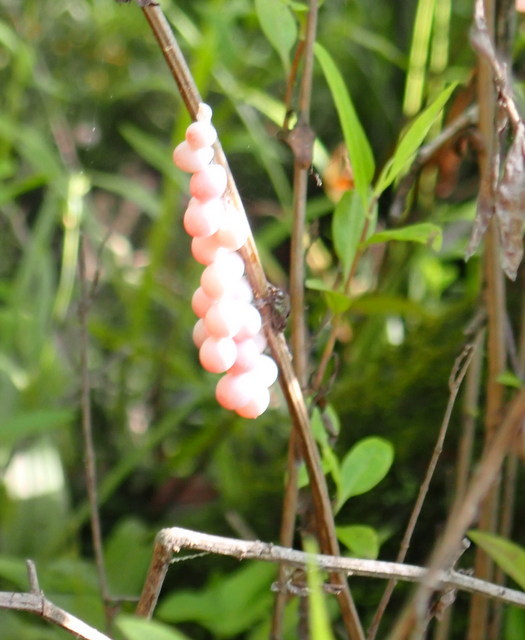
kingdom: Animalia
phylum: Mollusca
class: Gastropoda
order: Architaenioglossa
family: Ampullariidae
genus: Pomacea
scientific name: Pomacea paludosa
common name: Florida applesnail
